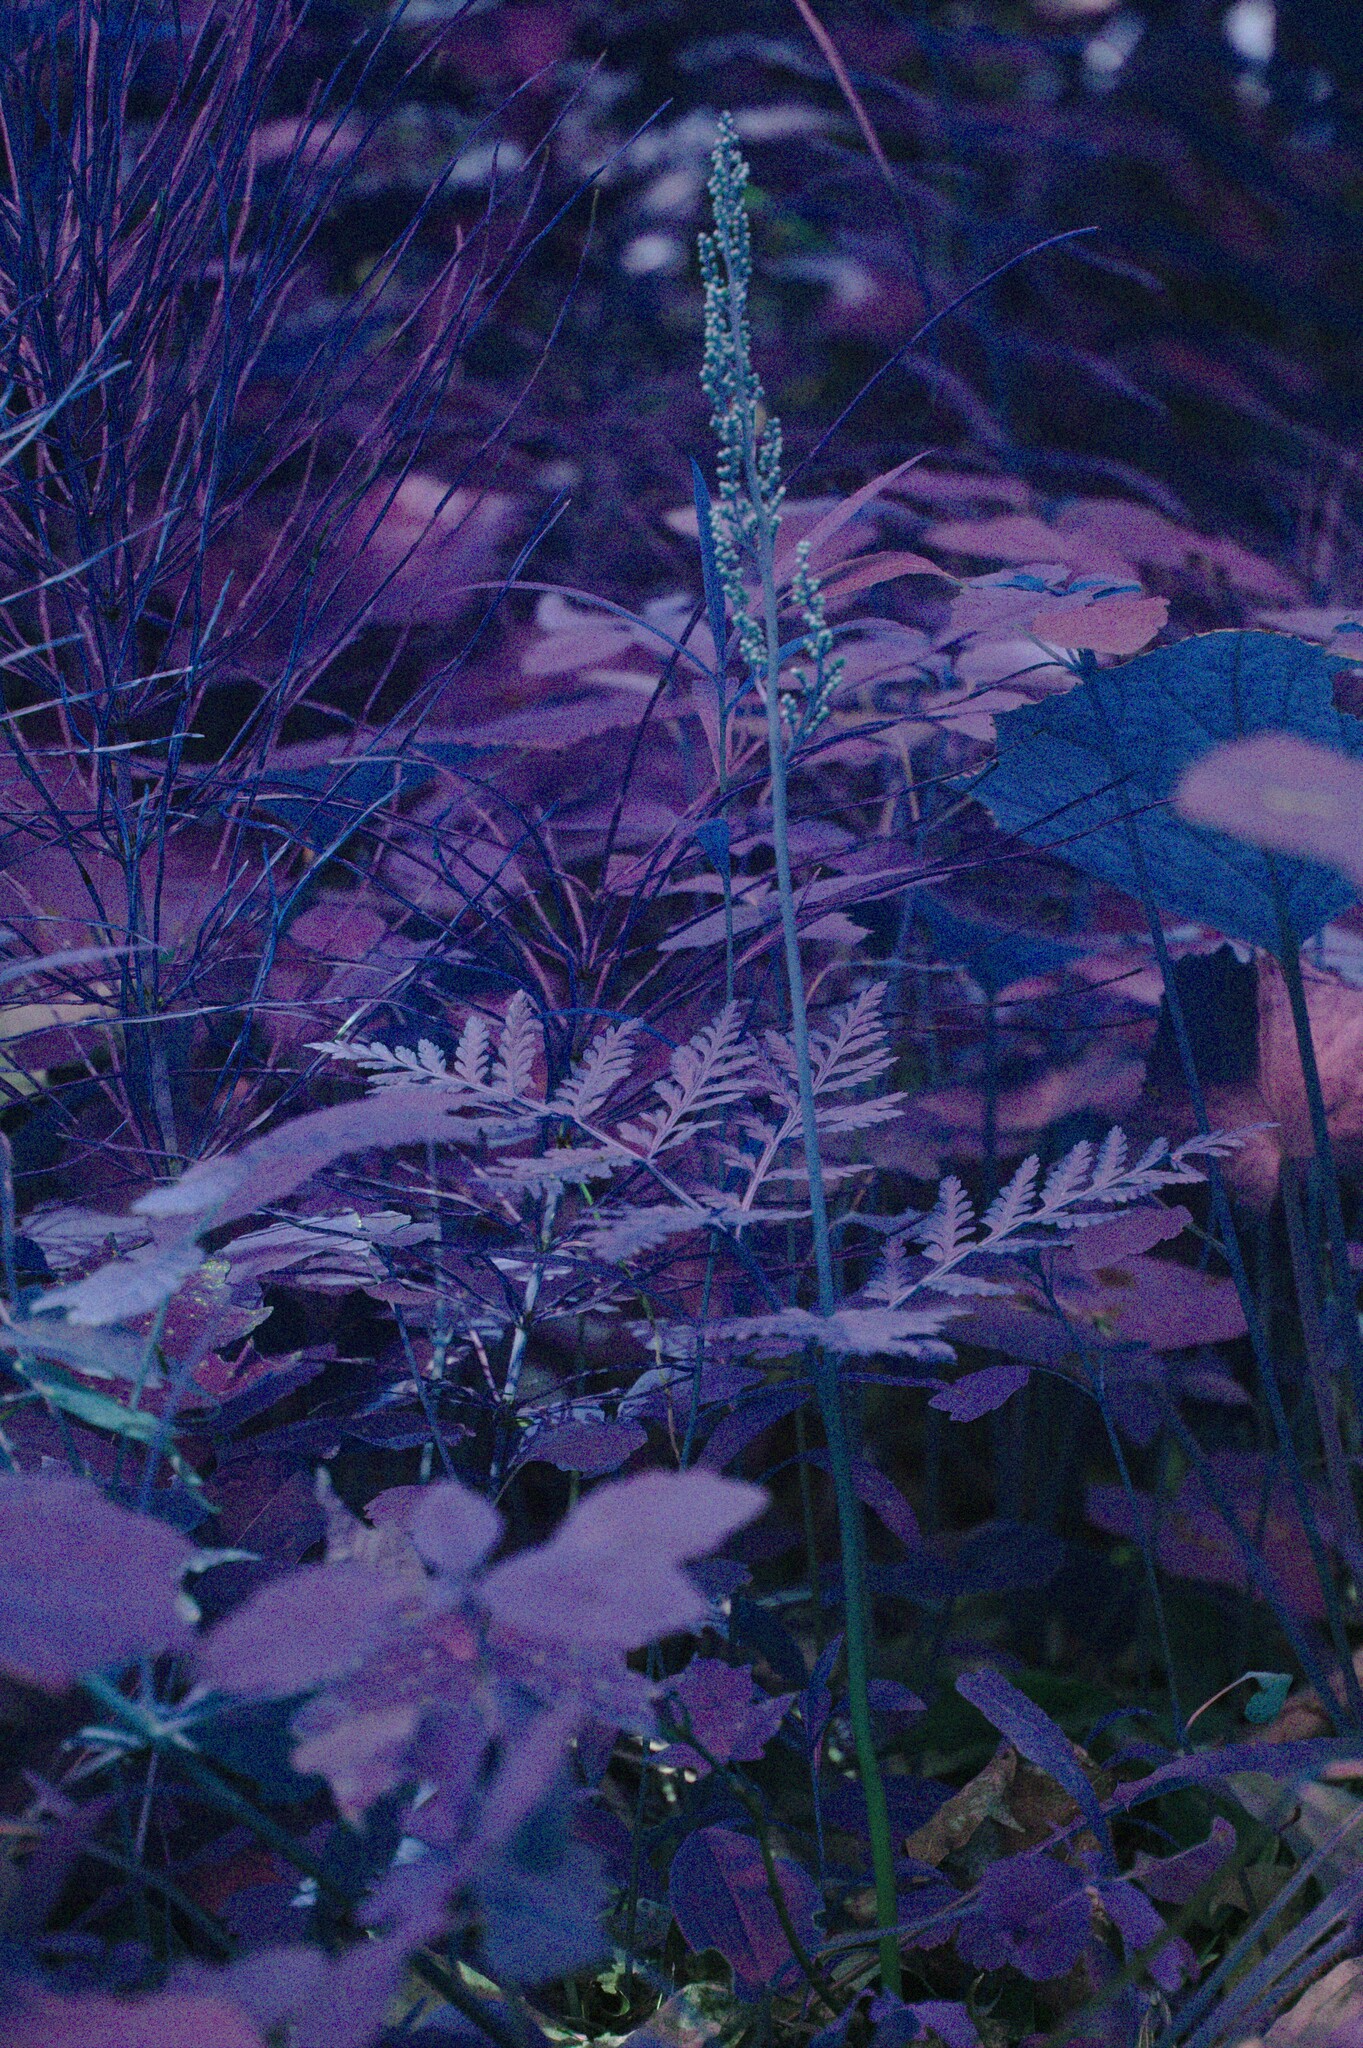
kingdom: Plantae
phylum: Tracheophyta
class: Polypodiopsida
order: Ophioglossales
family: Ophioglossaceae
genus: Botrypus
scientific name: Botrypus virginianus
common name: Common grapefern
